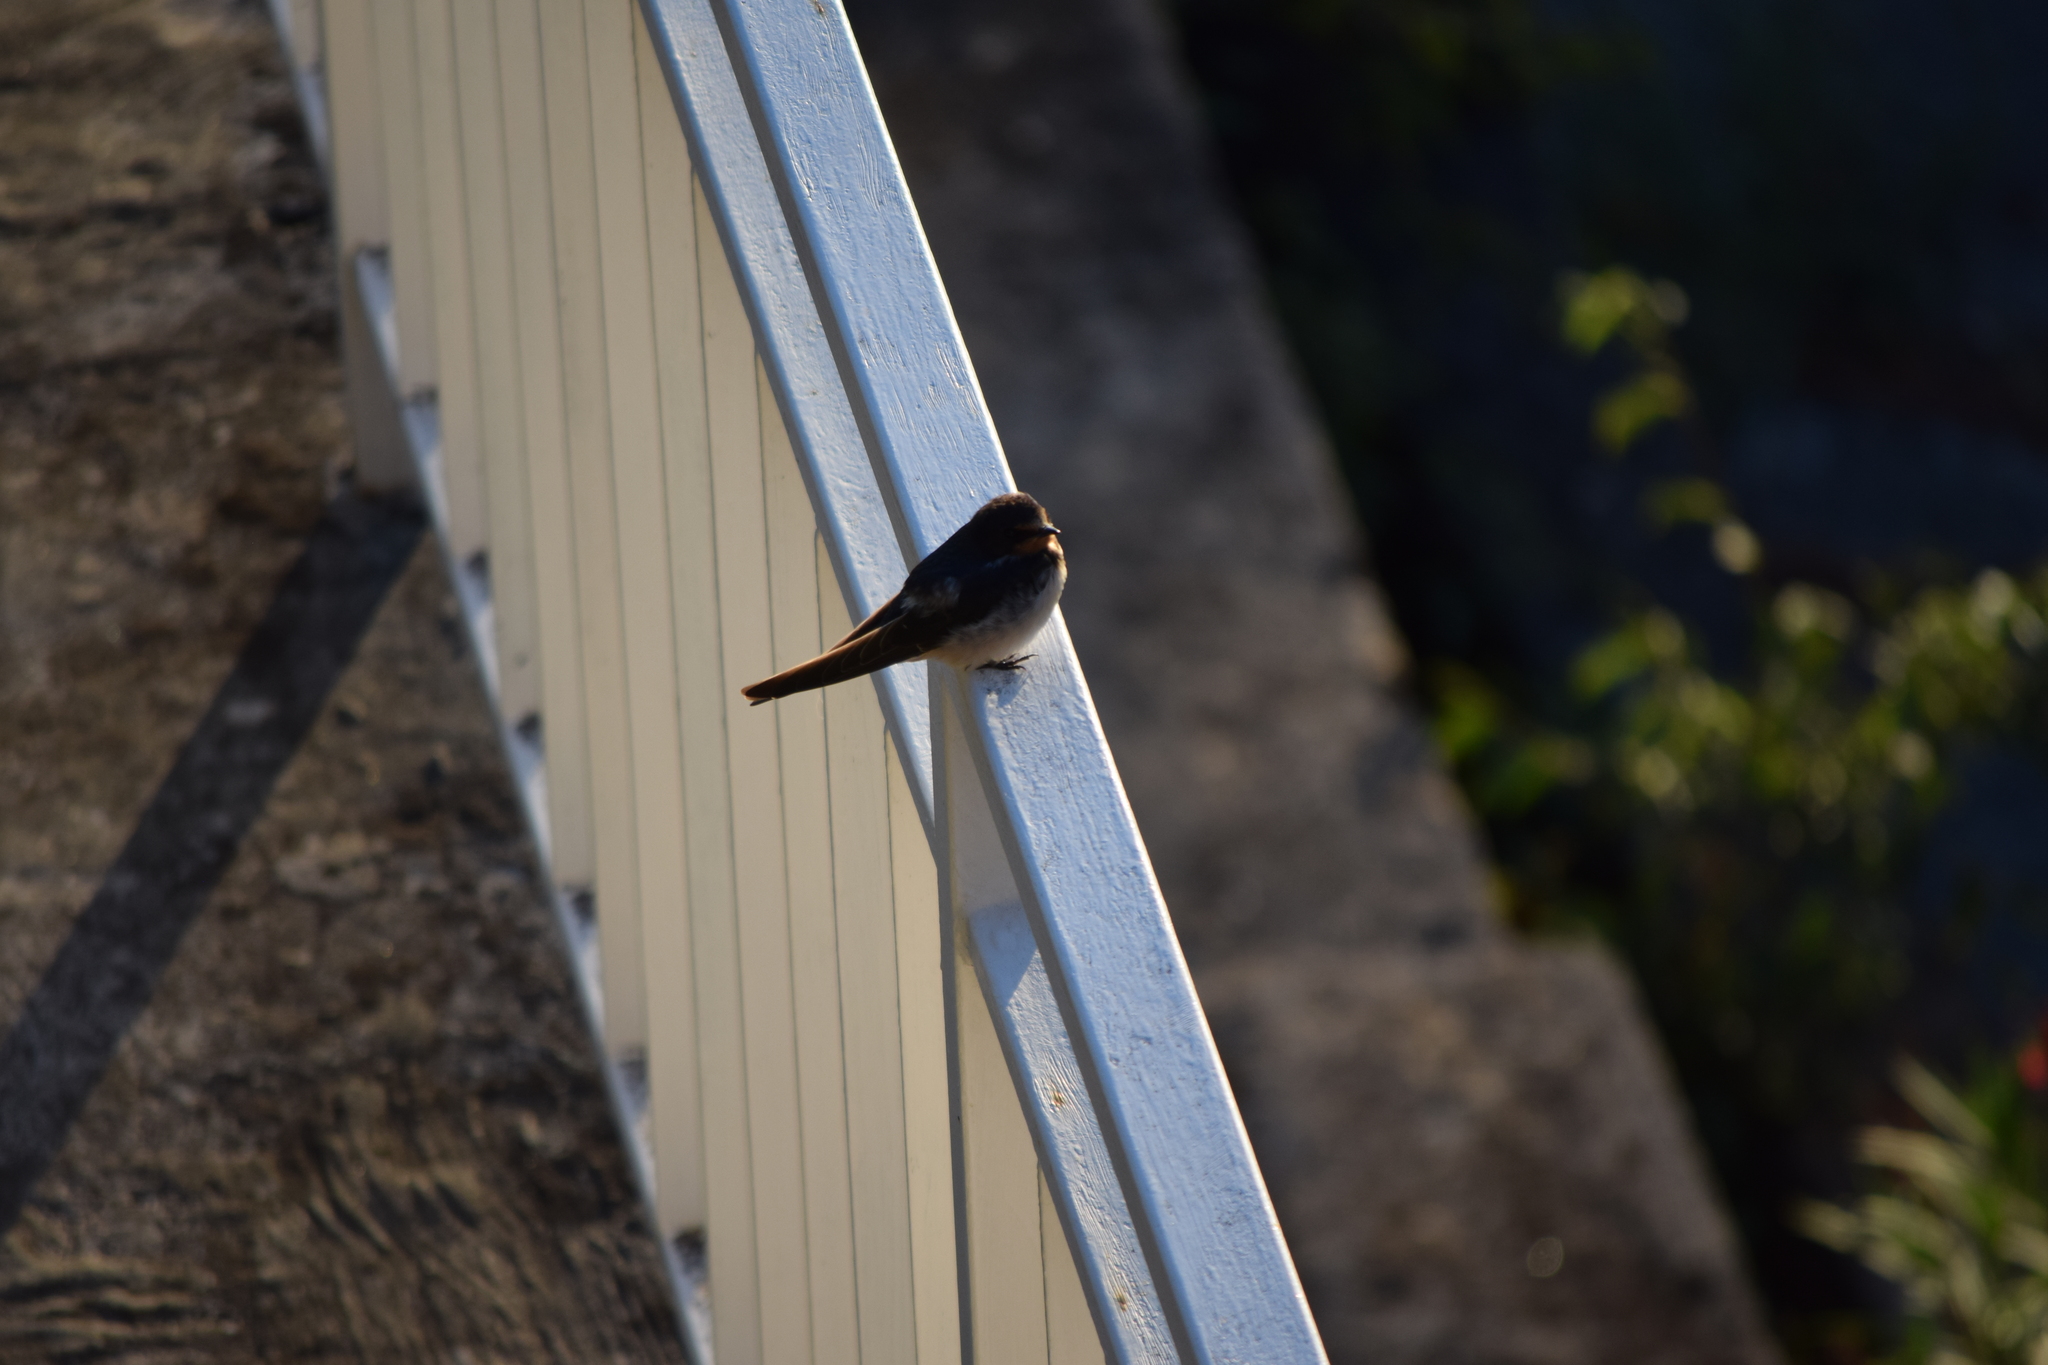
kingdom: Animalia
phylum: Chordata
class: Aves
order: Passeriformes
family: Hirundinidae
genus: Hirundo
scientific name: Hirundo rustica
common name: Barn swallow
